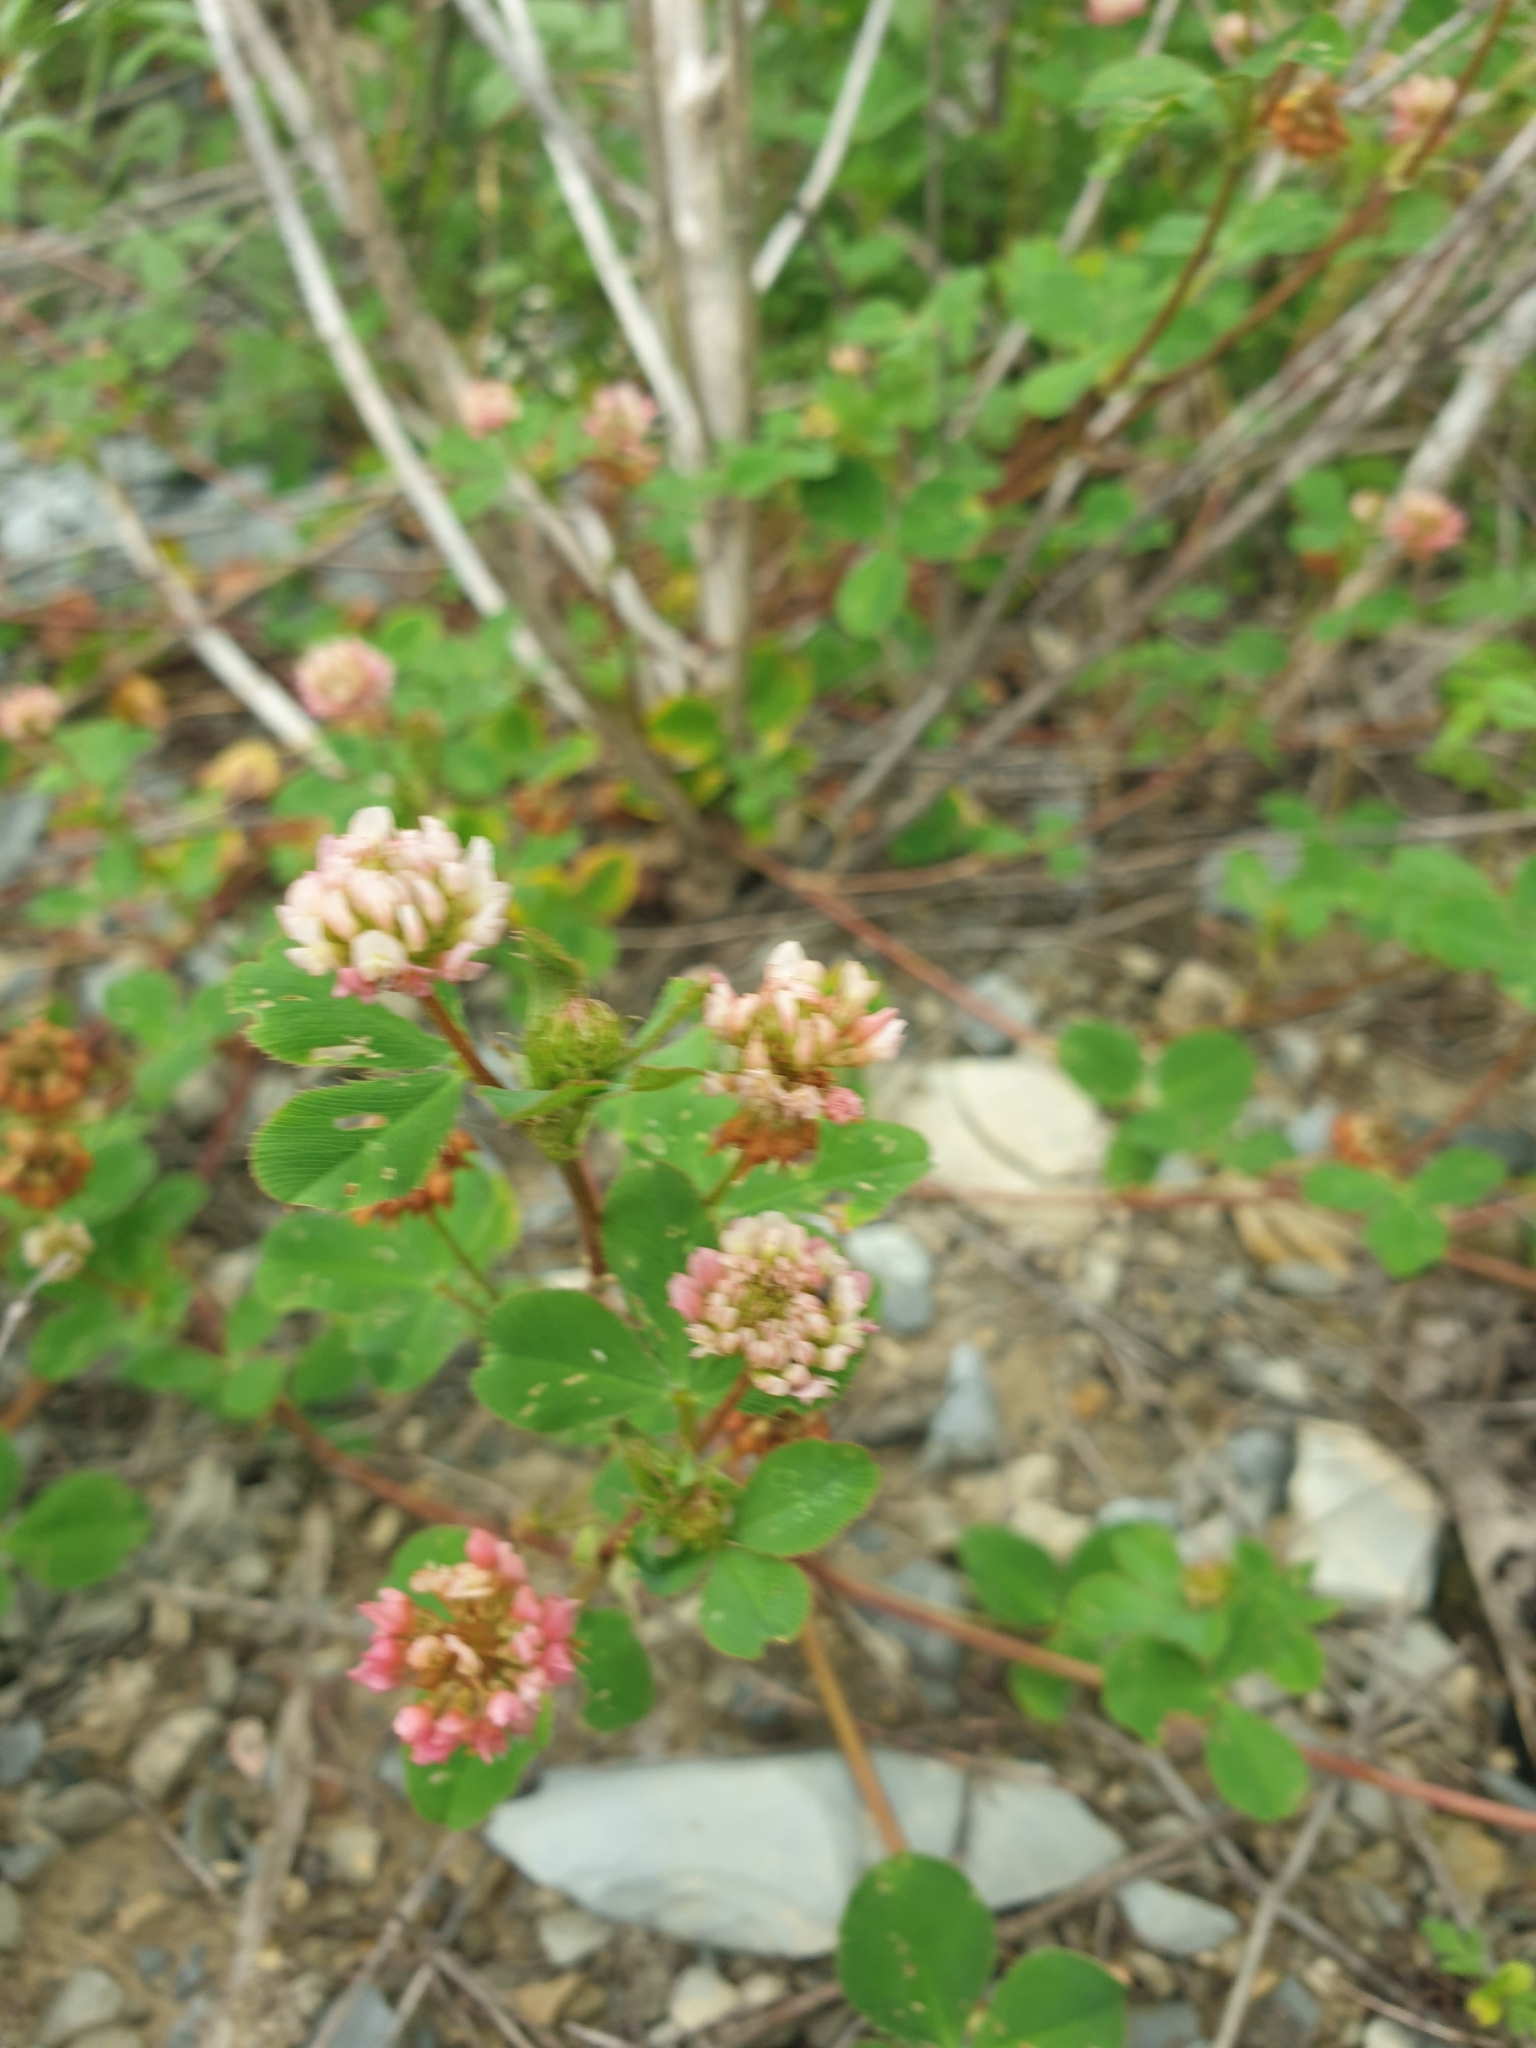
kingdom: Plantae
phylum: Tracheophyta
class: Magnoliopsida
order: Fabales
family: Fabaceae
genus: Trifolium
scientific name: Trifolium hybridum
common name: Alsike clover
